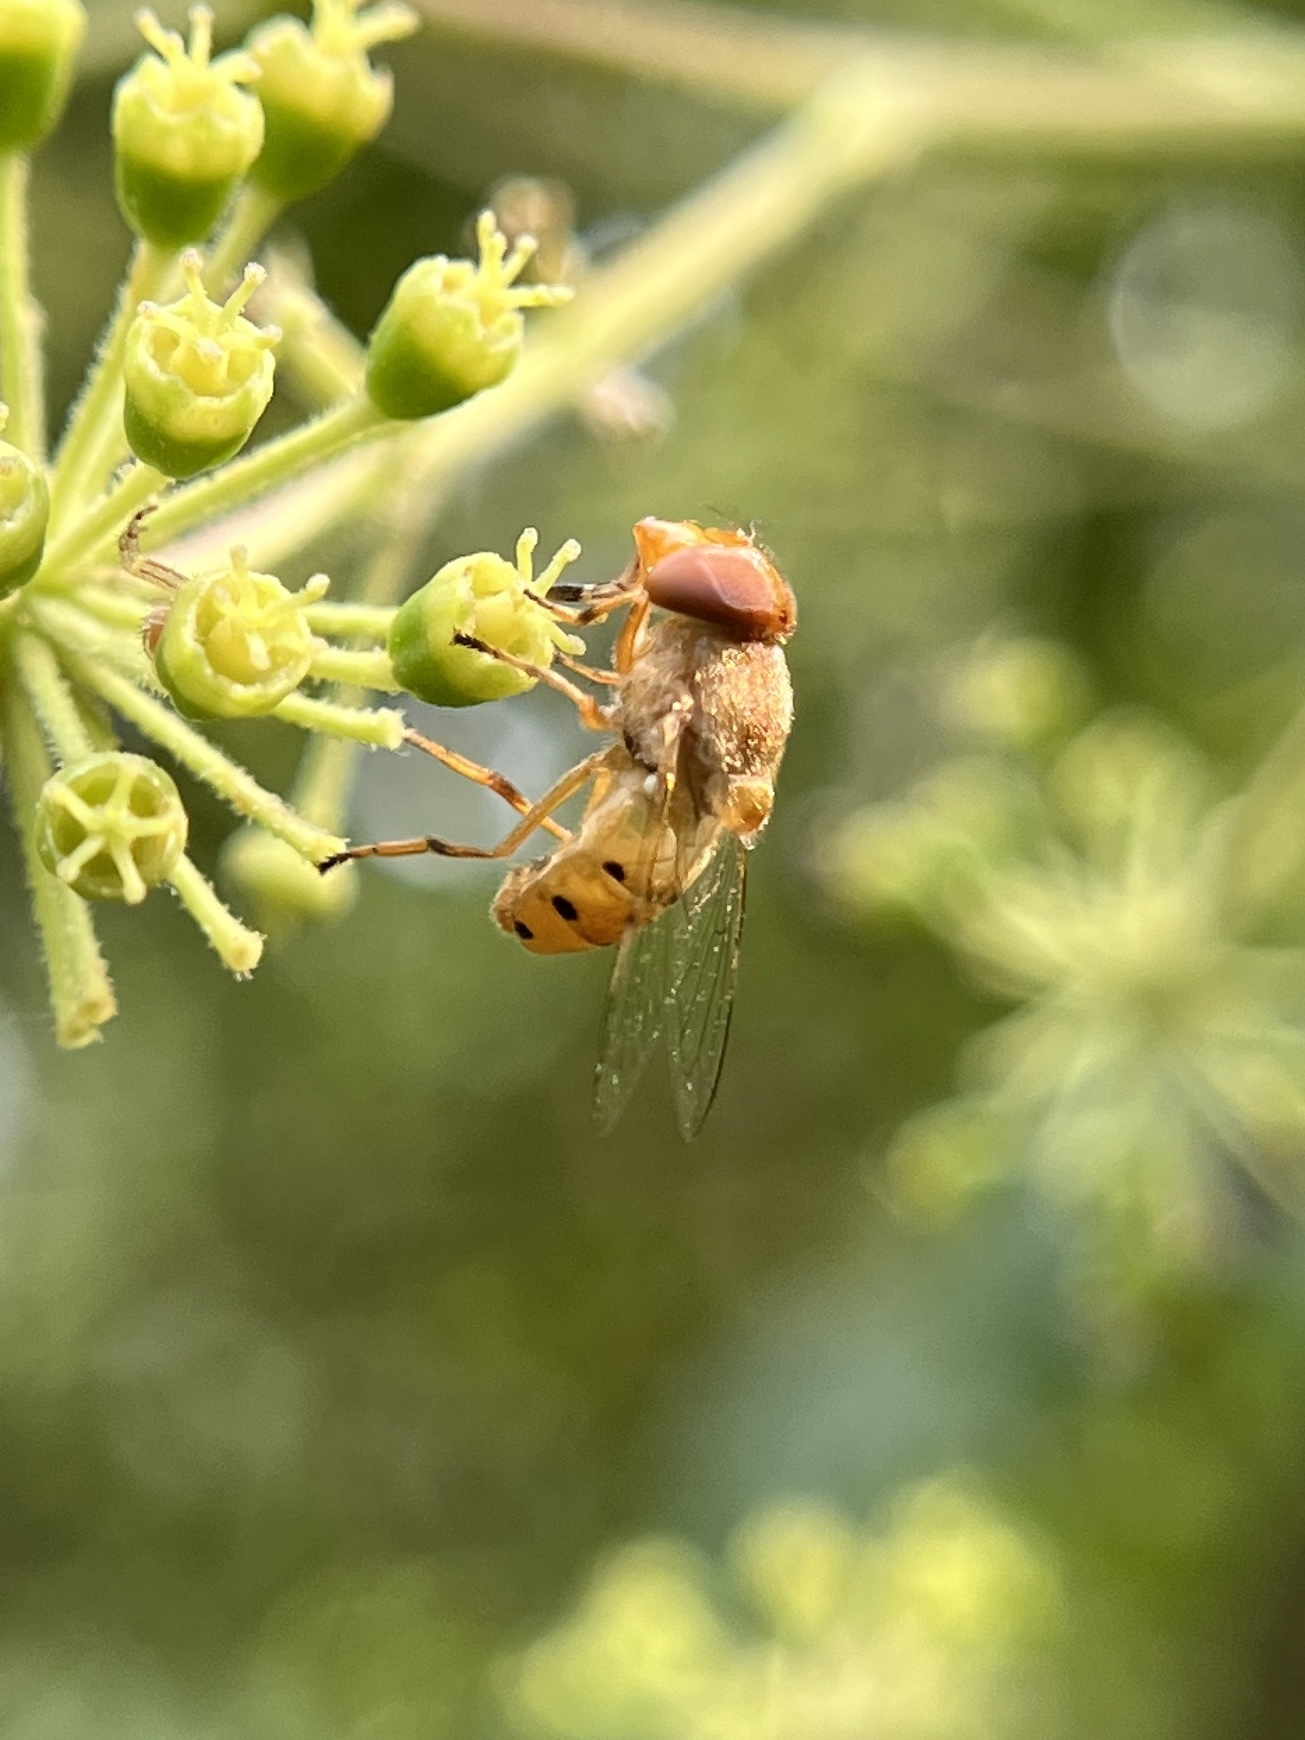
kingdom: Animalia
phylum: Arthropoda
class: Insecta
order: Diptera
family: Syrphidae
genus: Copestylum
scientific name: Copestylum sexmaculatum
